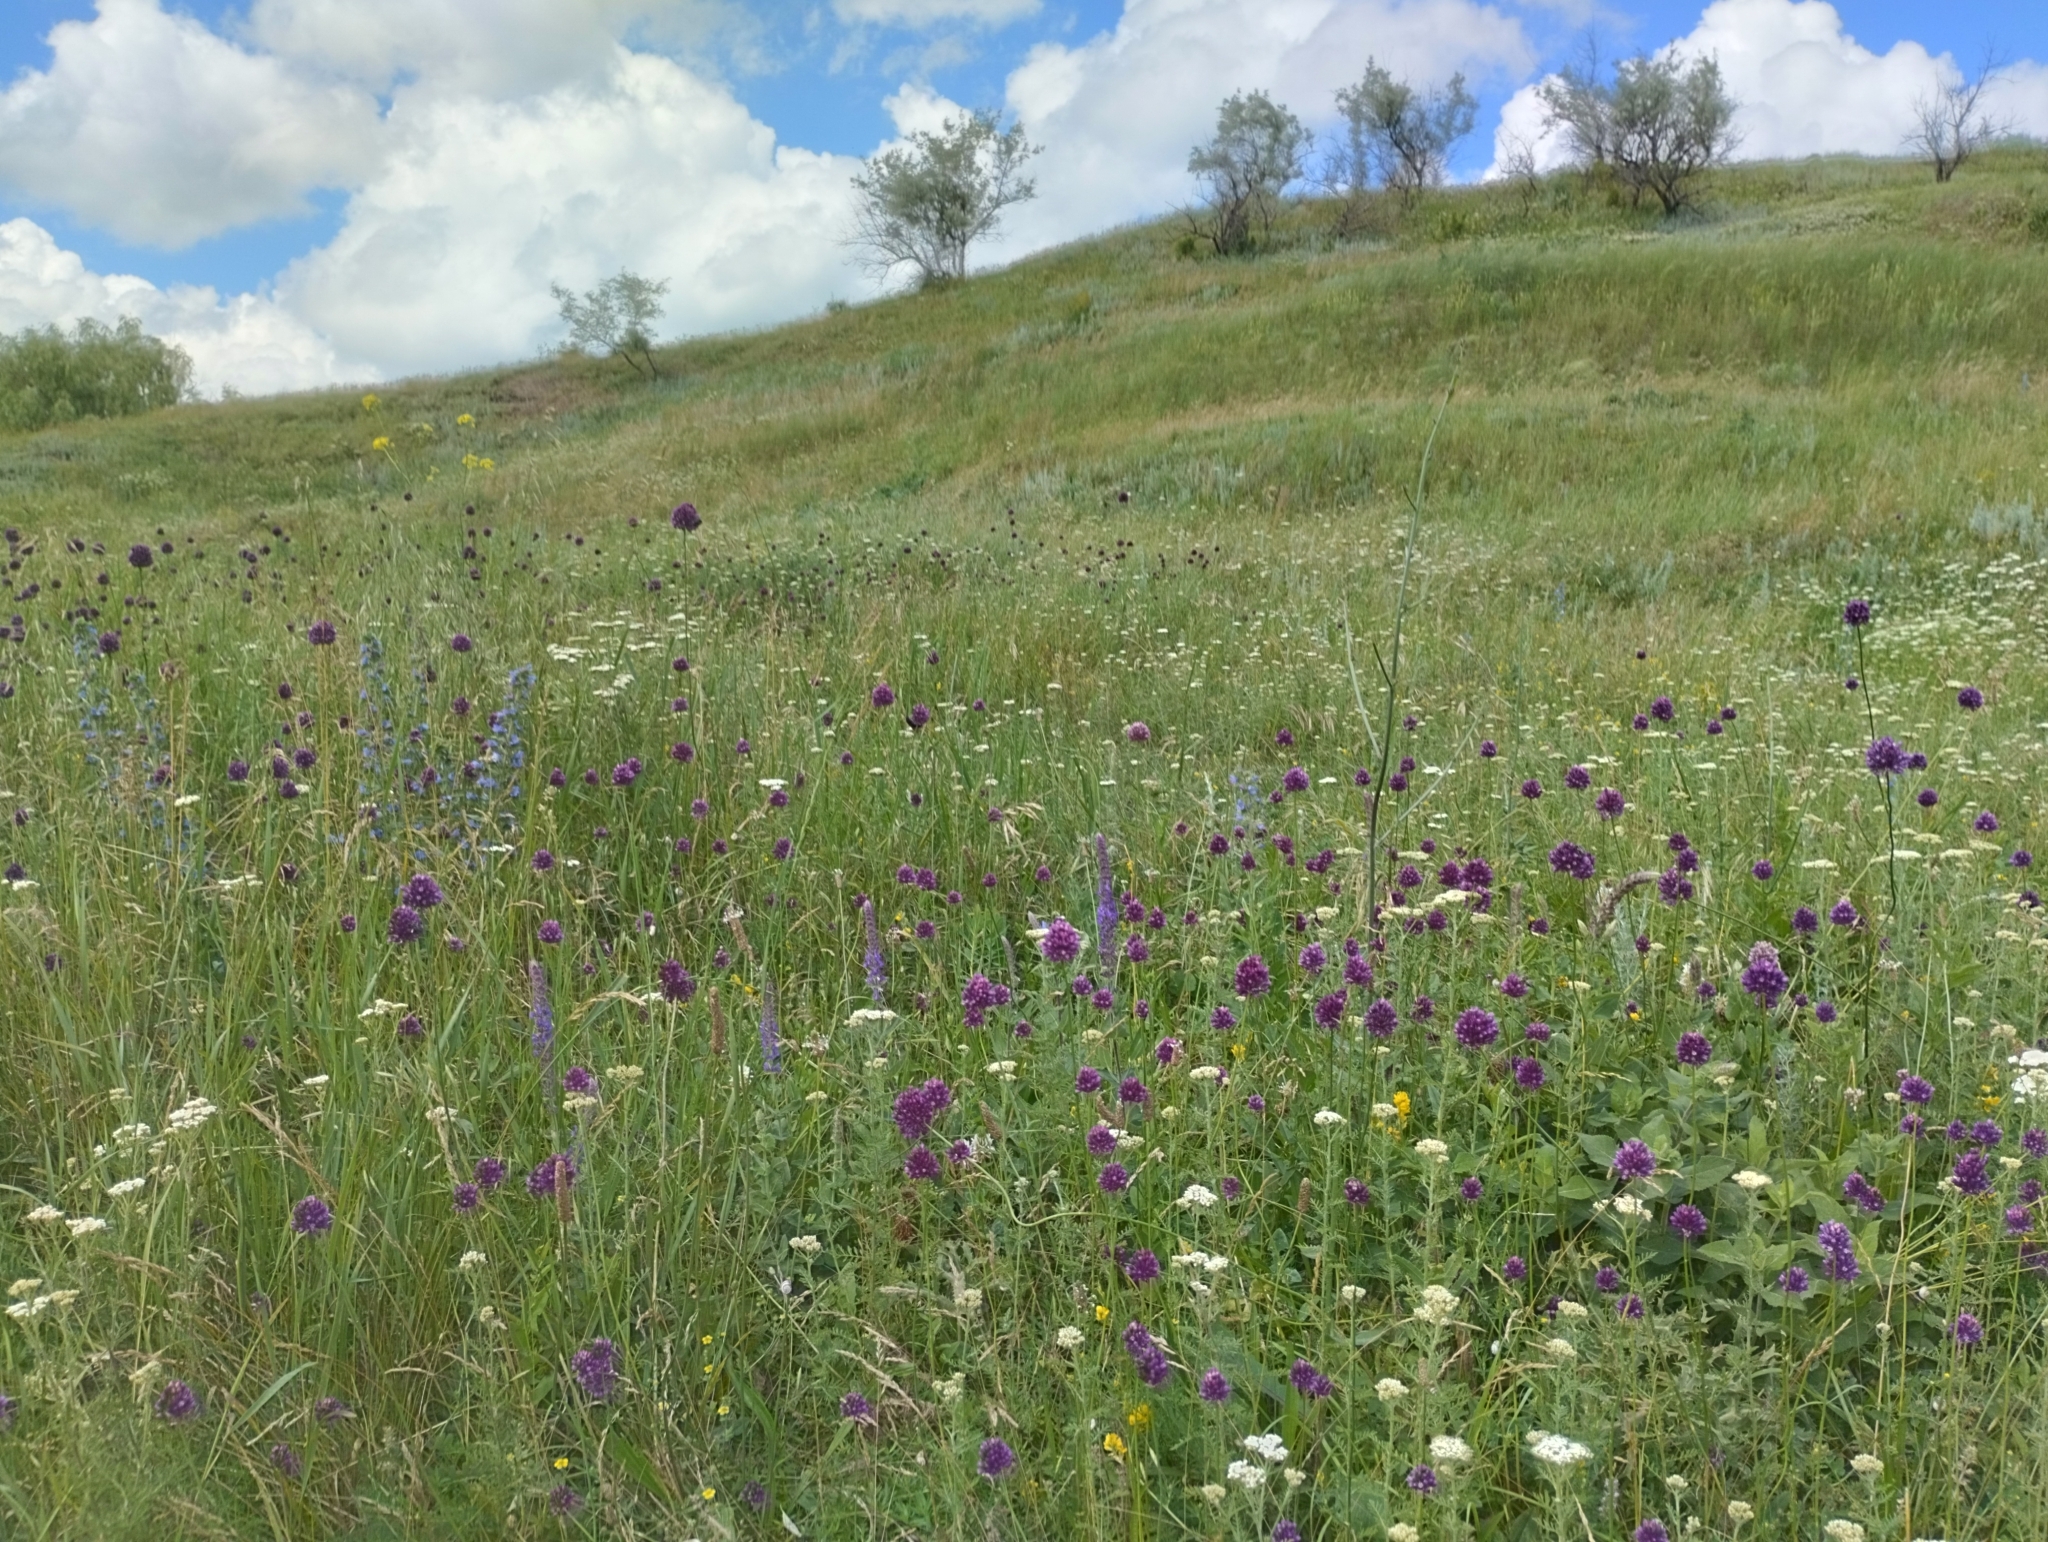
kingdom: Plantae
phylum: Tracheophyta
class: Liliopsida
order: Asparagales
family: Amaryllidaceae
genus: Allium
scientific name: Allium rotundum
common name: Sand leek
